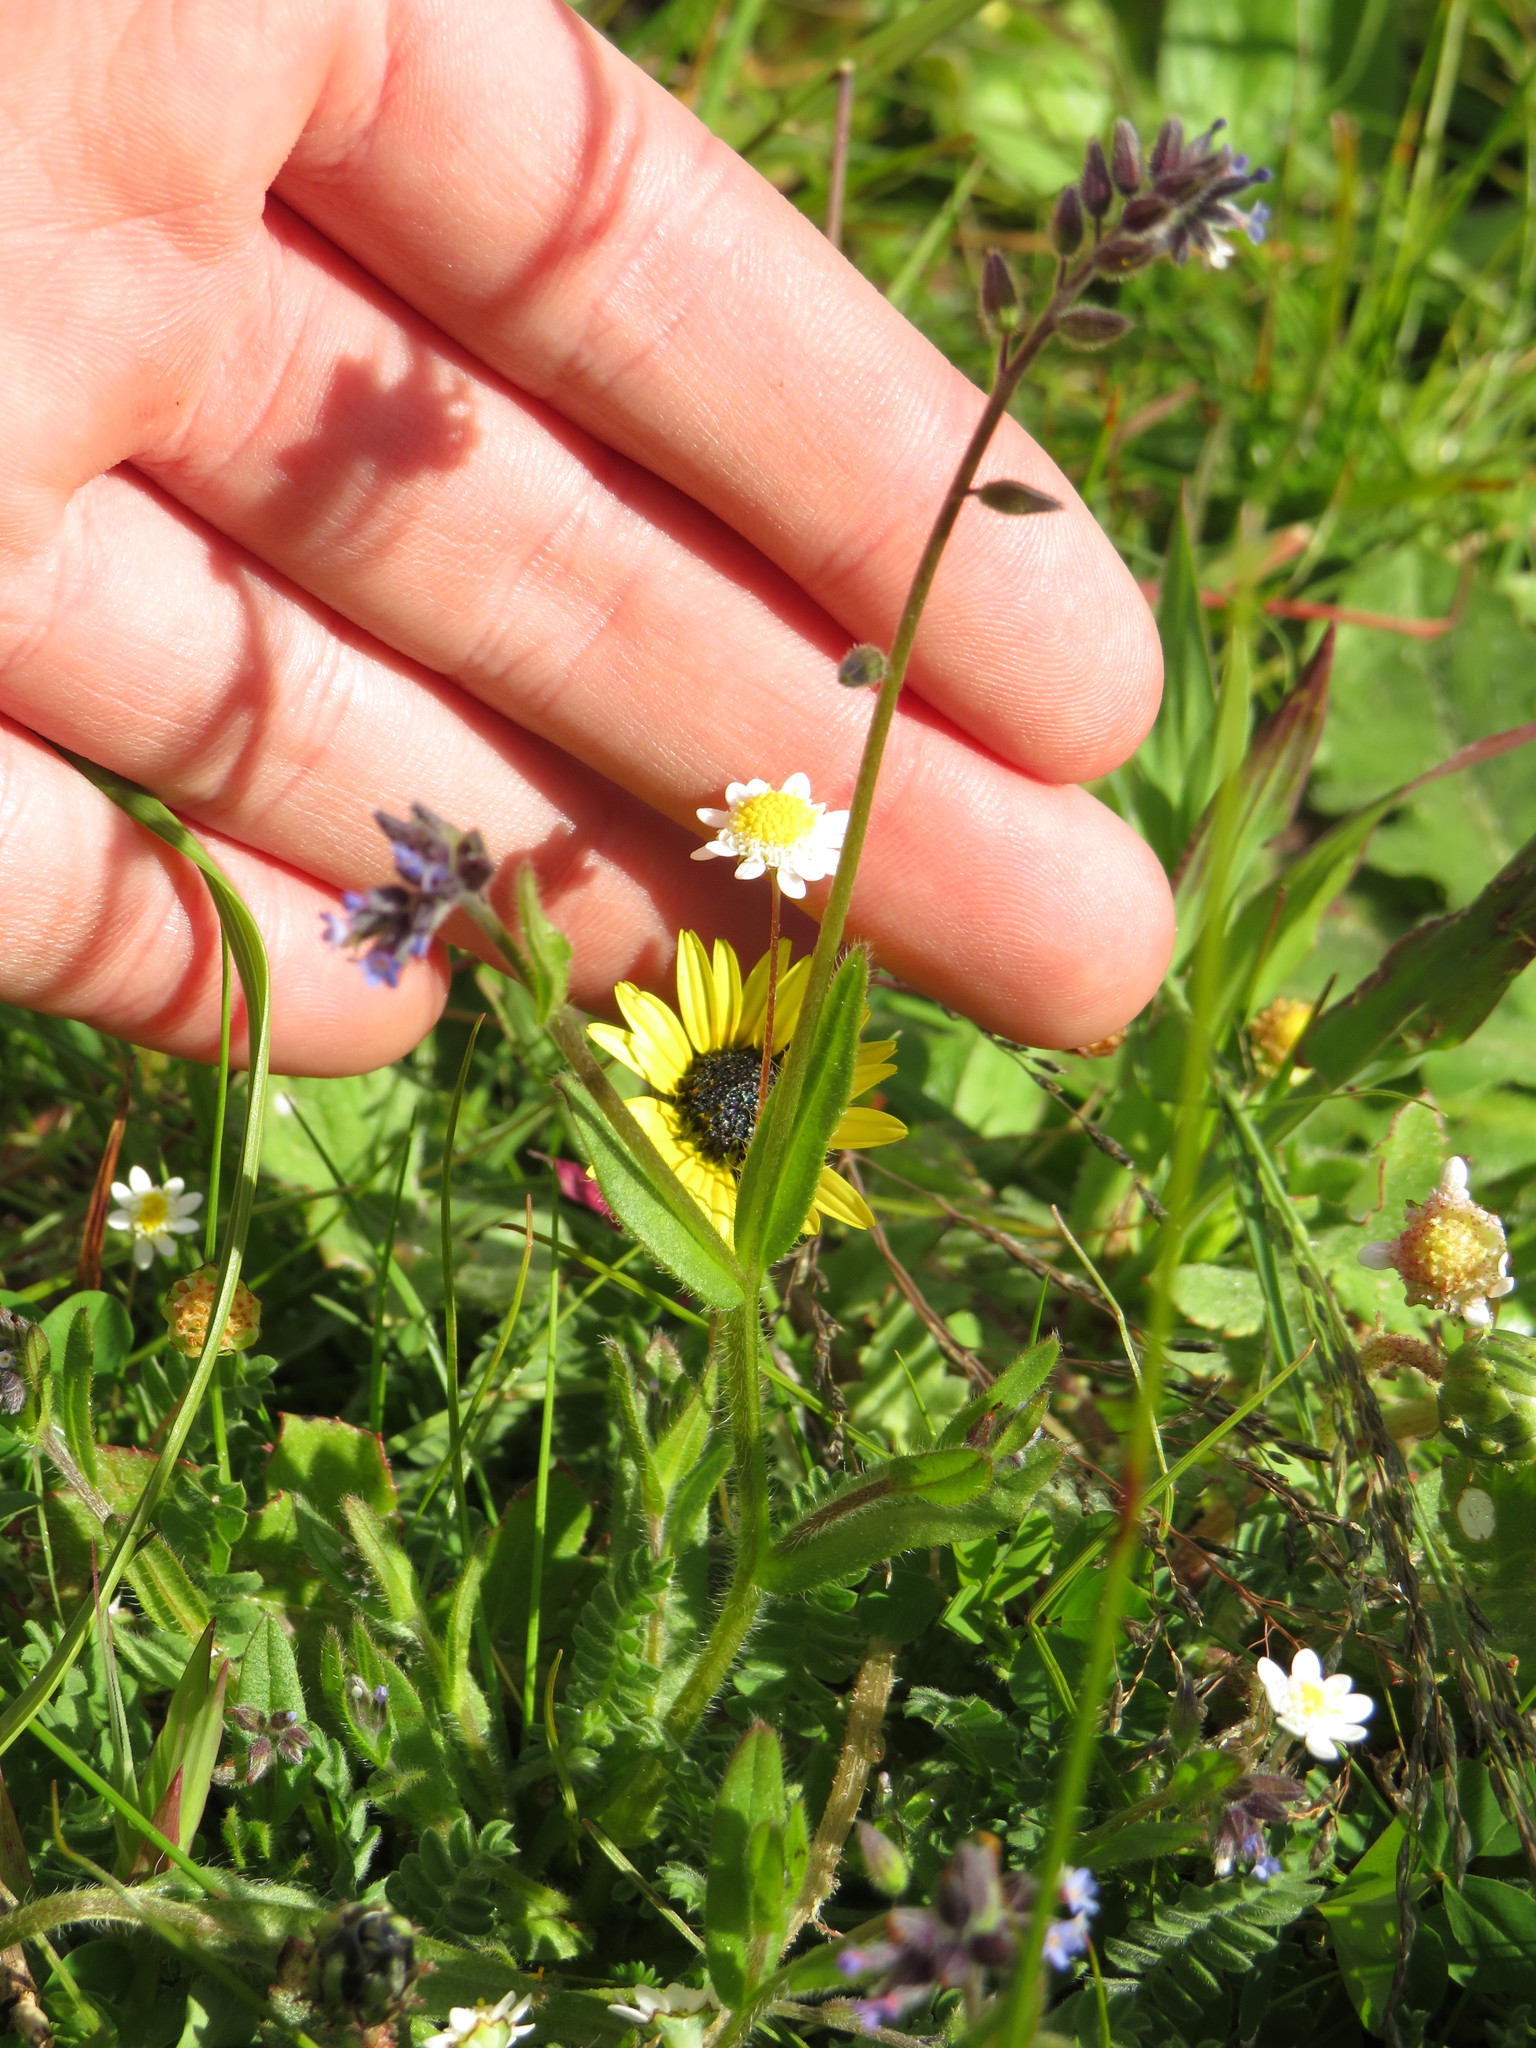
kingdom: Plantae
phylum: Tracheophyta
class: Magnoliopsida
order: Boraginales
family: Boraginaceae
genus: Myosotis
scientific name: Myosotis discolor
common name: Changing forget-me-not
